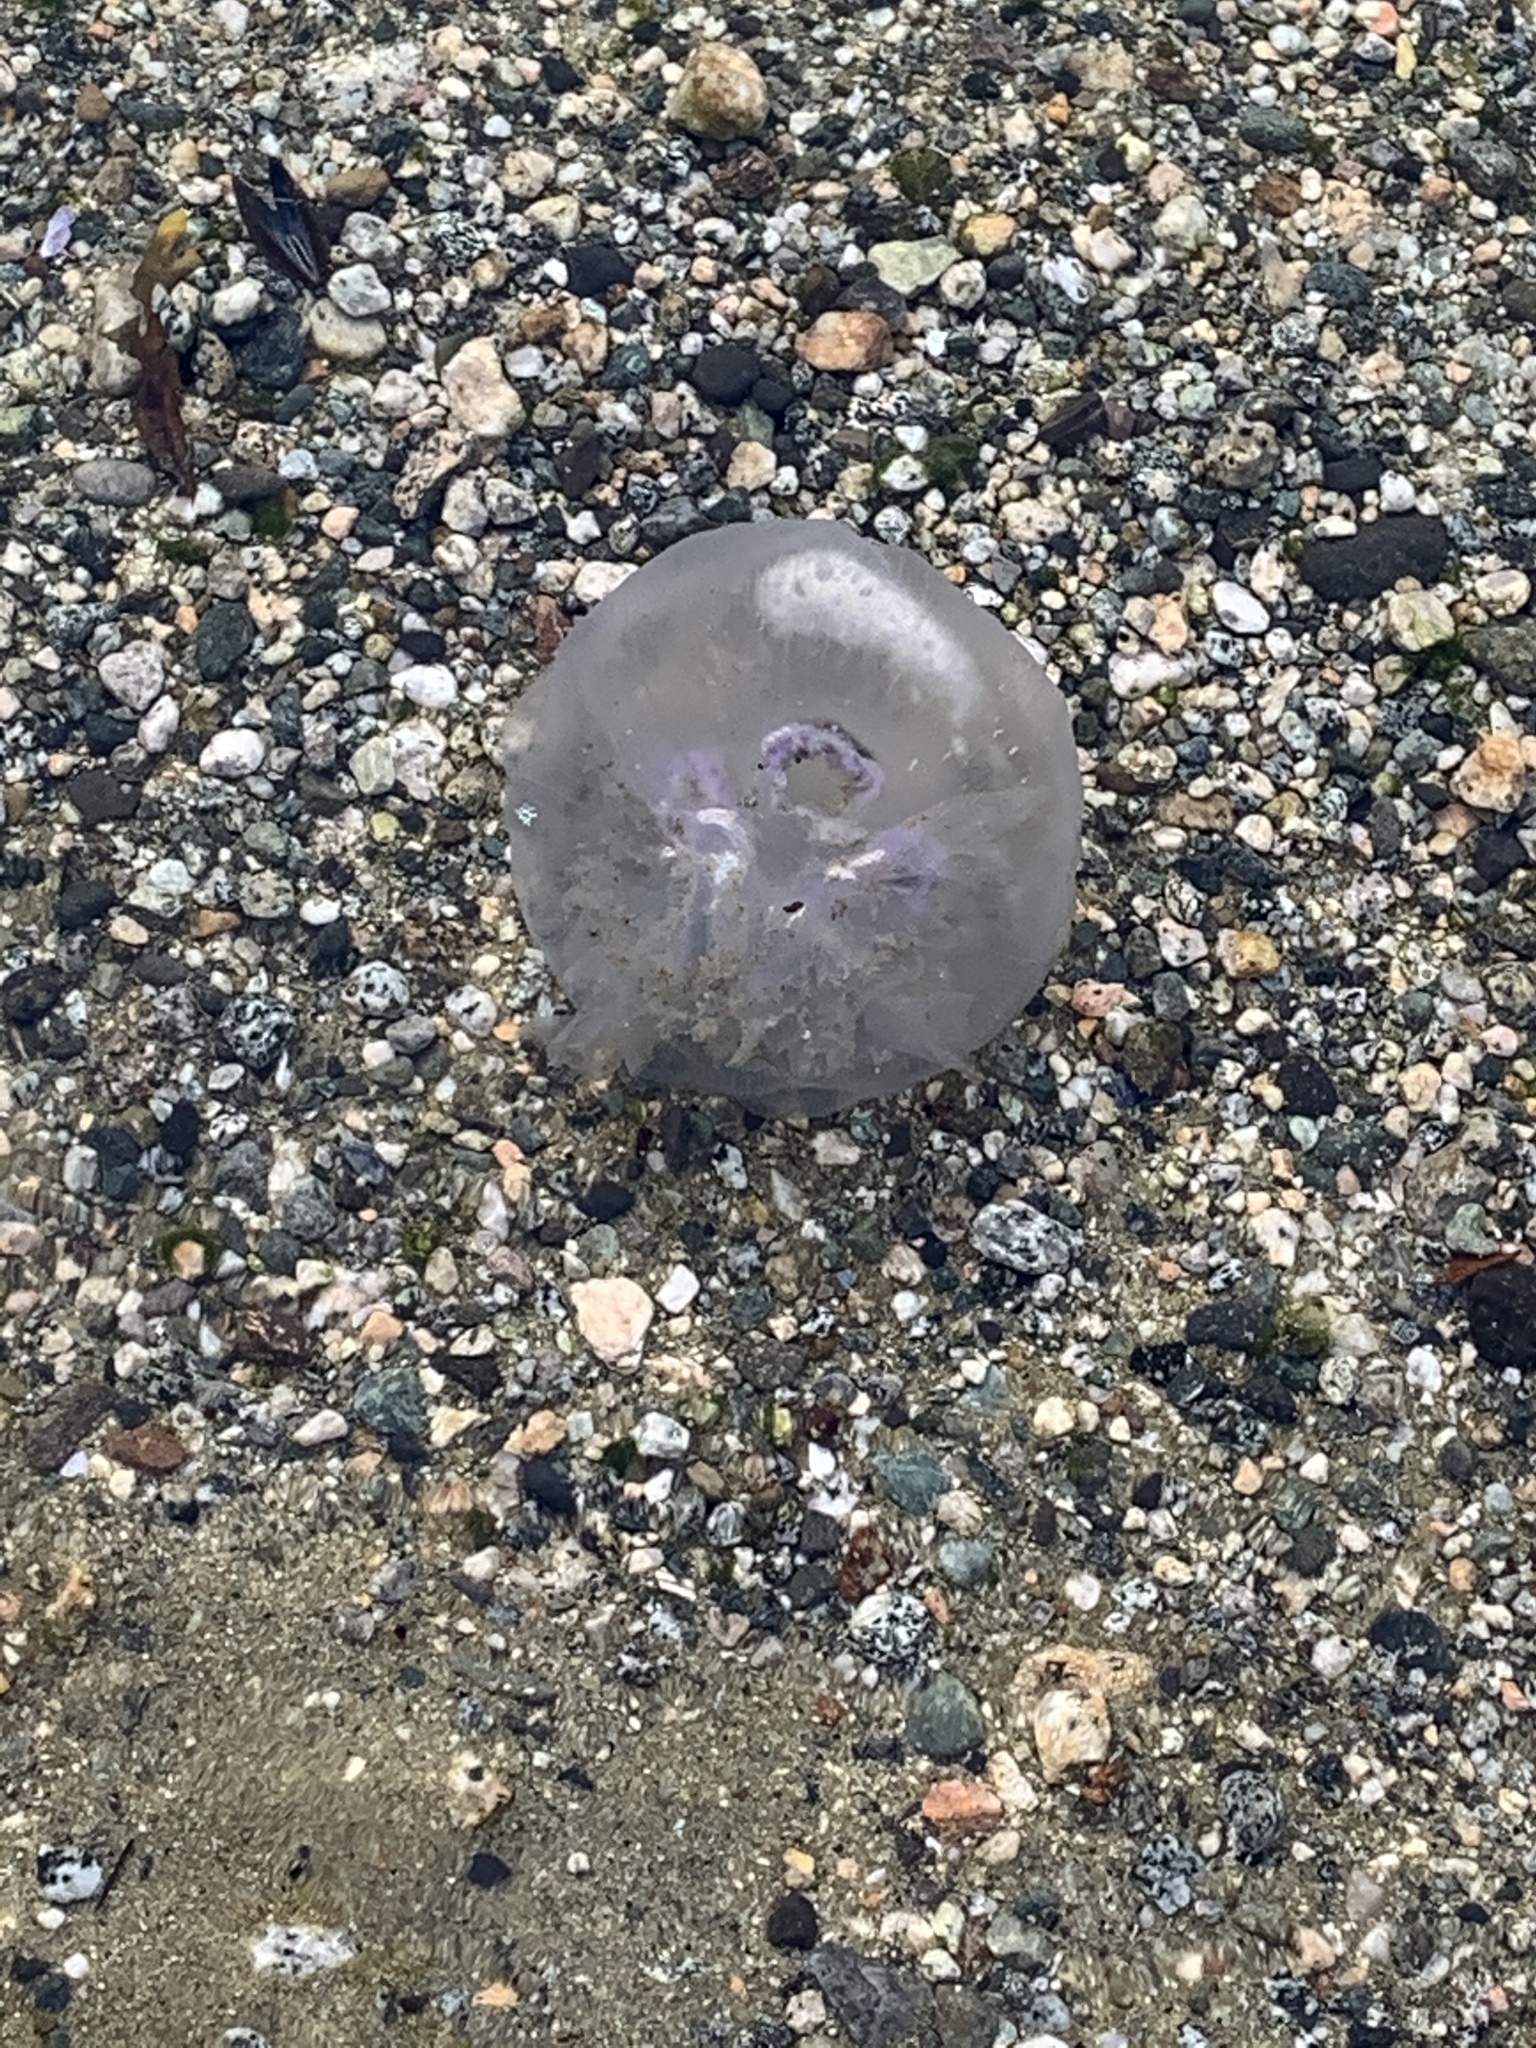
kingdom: Animalia
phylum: Cnidaria
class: Scyphozoa
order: Semaeostomeae
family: Ulmaridae
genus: Aurelia
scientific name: Aurelia labiata
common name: Pacific moon jelly
